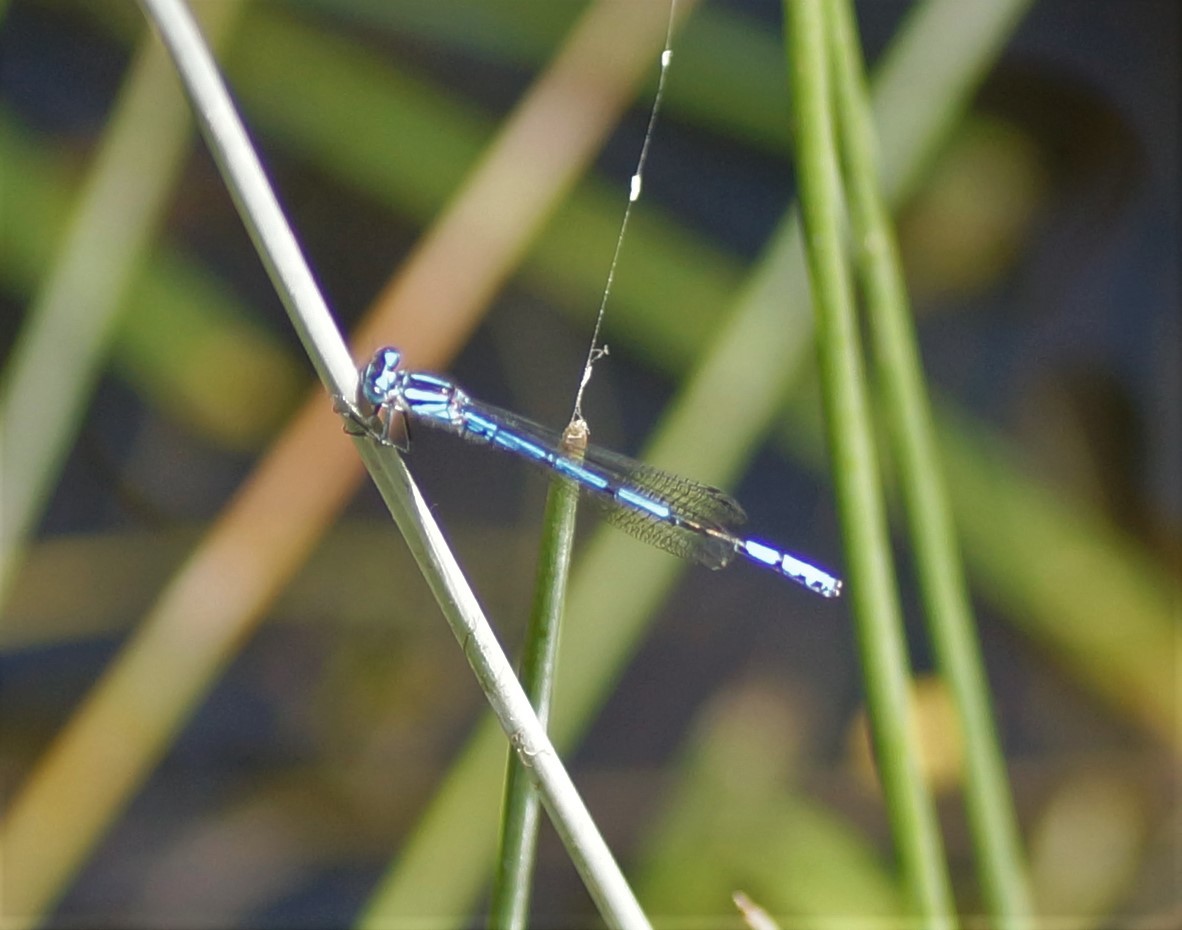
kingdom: Animalia
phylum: Arthropoda
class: Insecta
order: Odonata
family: Coenagrionidae
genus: Austrocoenagrion
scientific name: Austrocoenagrion lyelli
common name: Swamp bluet
